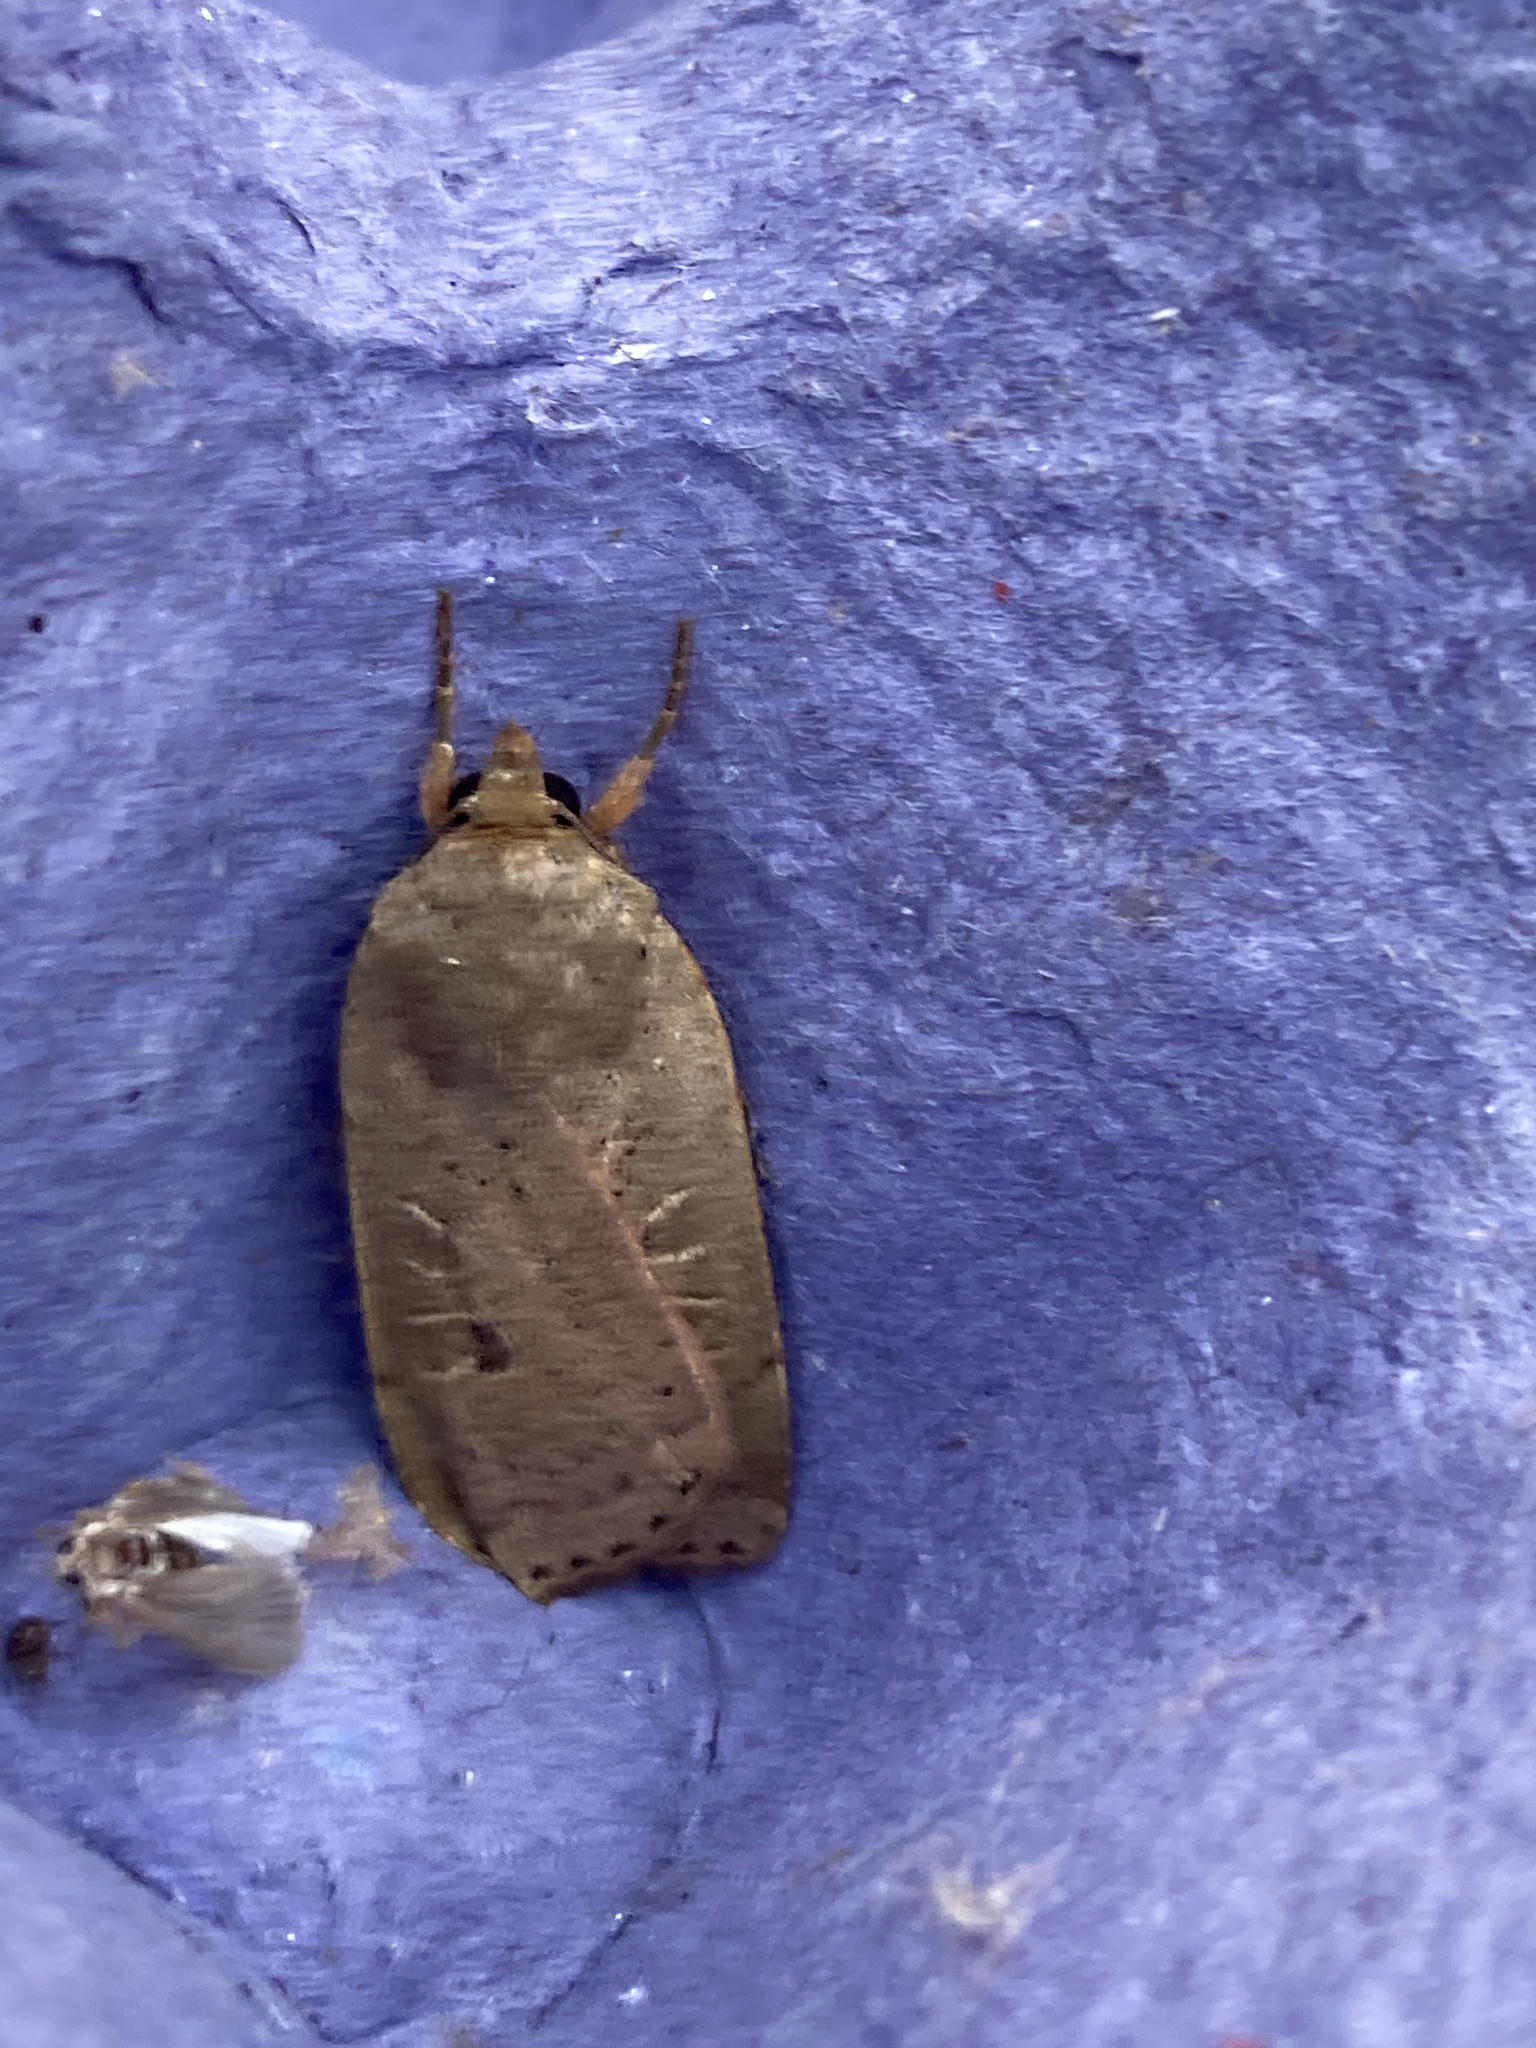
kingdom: Animalia
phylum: Arthropoda
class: Insecta
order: Lepidoptera
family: Noctuidae
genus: Noctua
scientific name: Noctua comes
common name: Lesser yellow underwing
